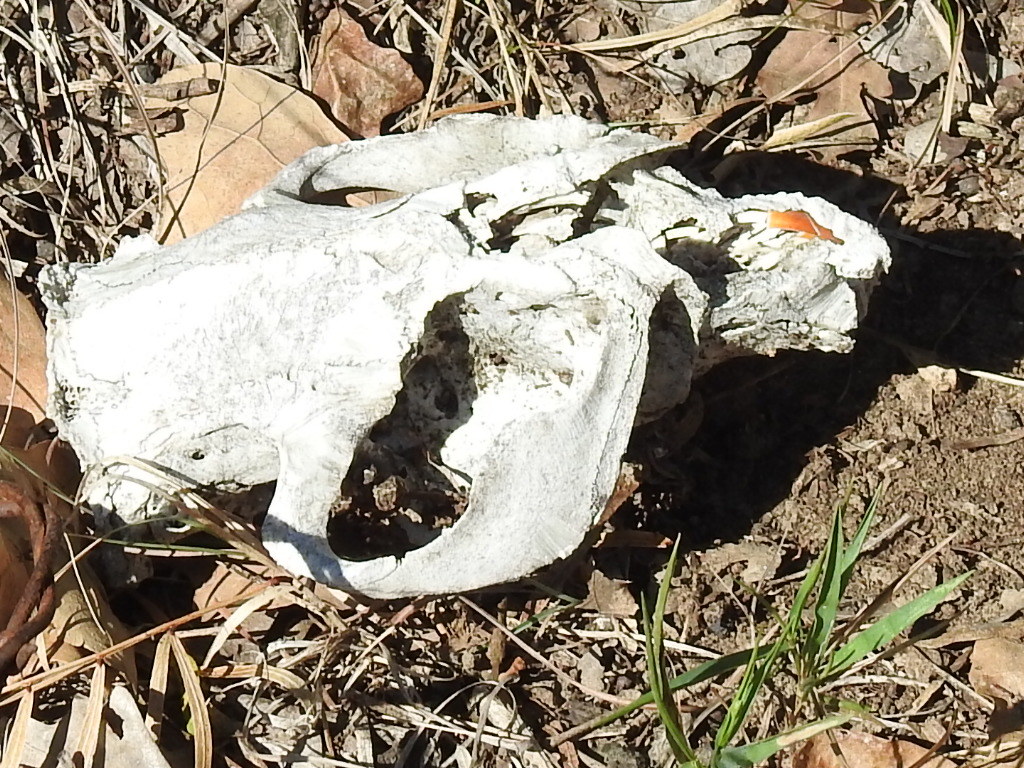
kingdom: Animalia
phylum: Chordata
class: Mammalia
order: Rodentia
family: Castoridae
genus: Castor
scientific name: Castor canadensis
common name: American beaver
